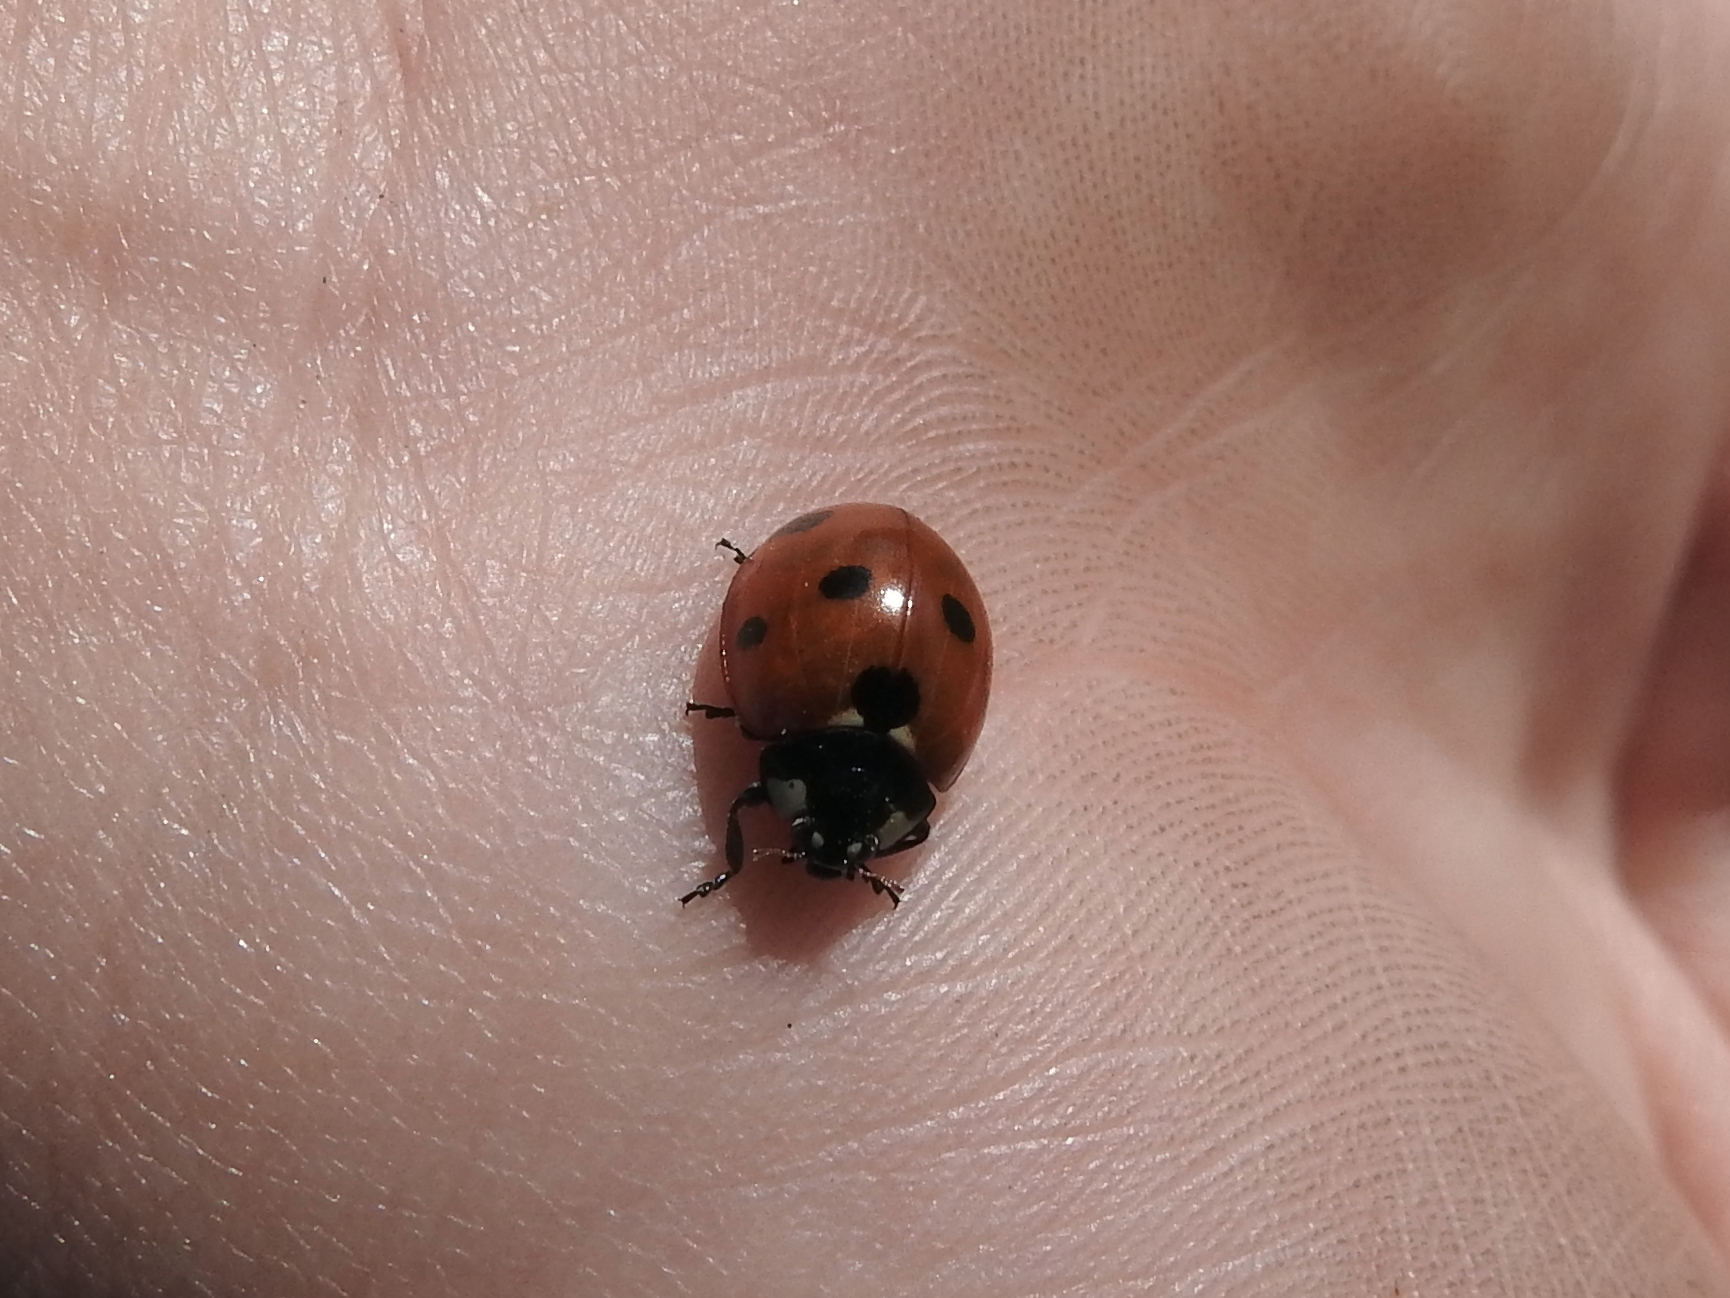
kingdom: Animalia
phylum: Arthropoda
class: Insecta
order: Coleoptera
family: Coccinellidae
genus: Coccinella
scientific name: Coccinella septempunctata
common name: Sevenspotted lady beetle
